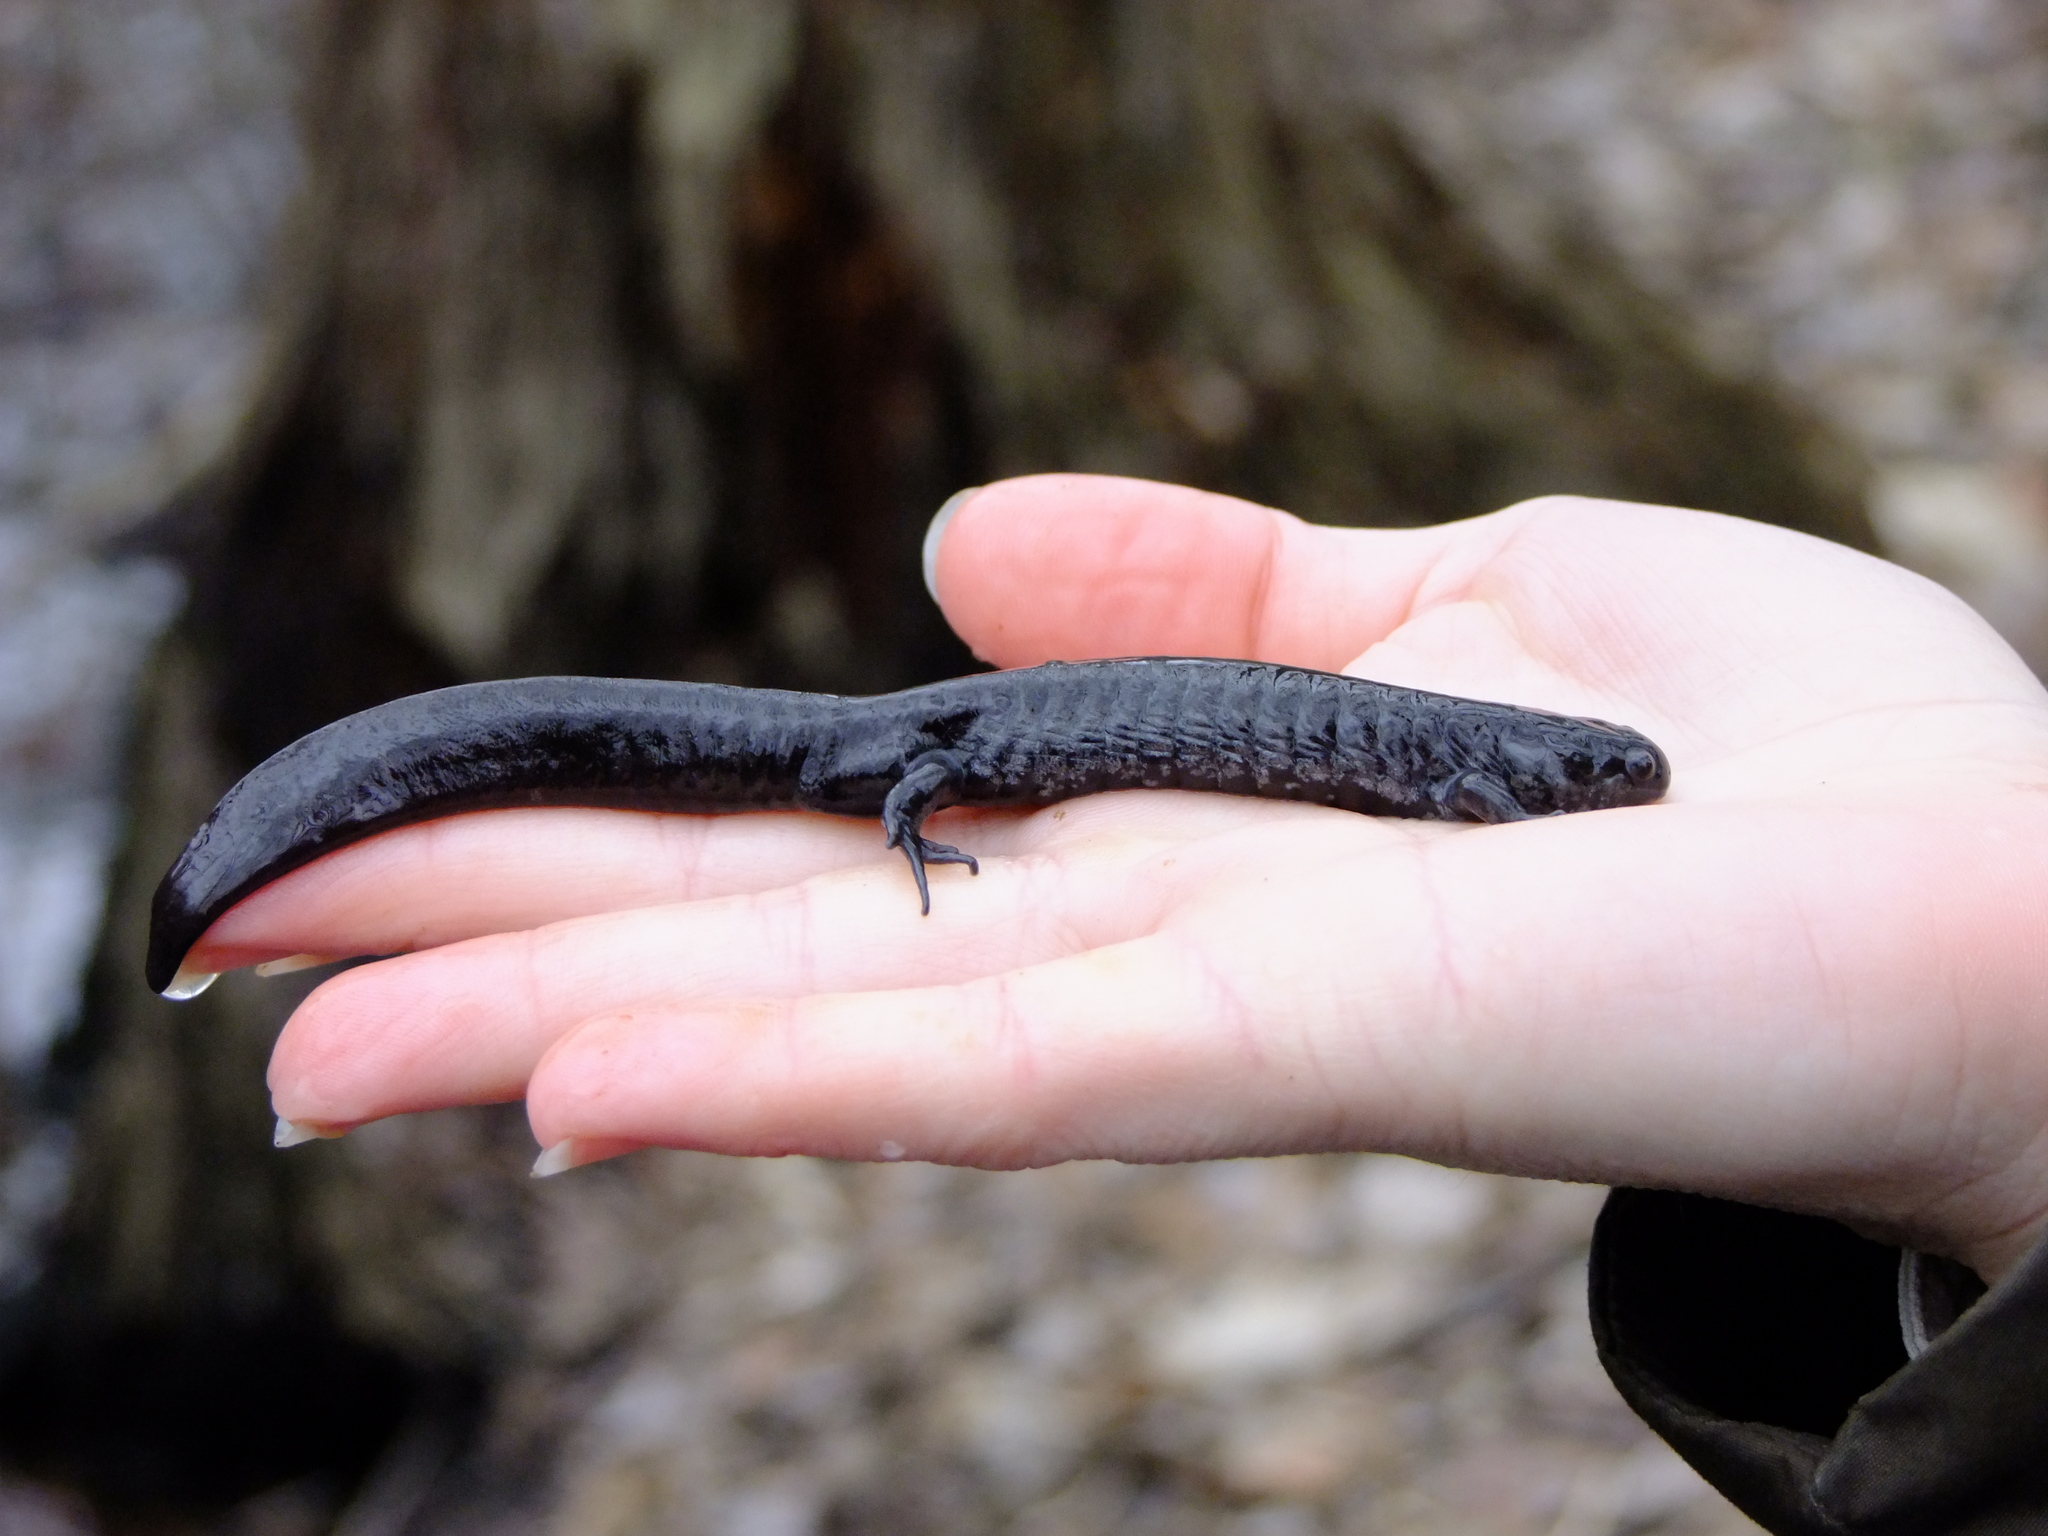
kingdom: Animalia
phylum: Chordata
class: Amphibia
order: Caudata
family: Ambystomatidae
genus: Ambystoma
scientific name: Ambystoma texanum
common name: Small-mouth salamander
